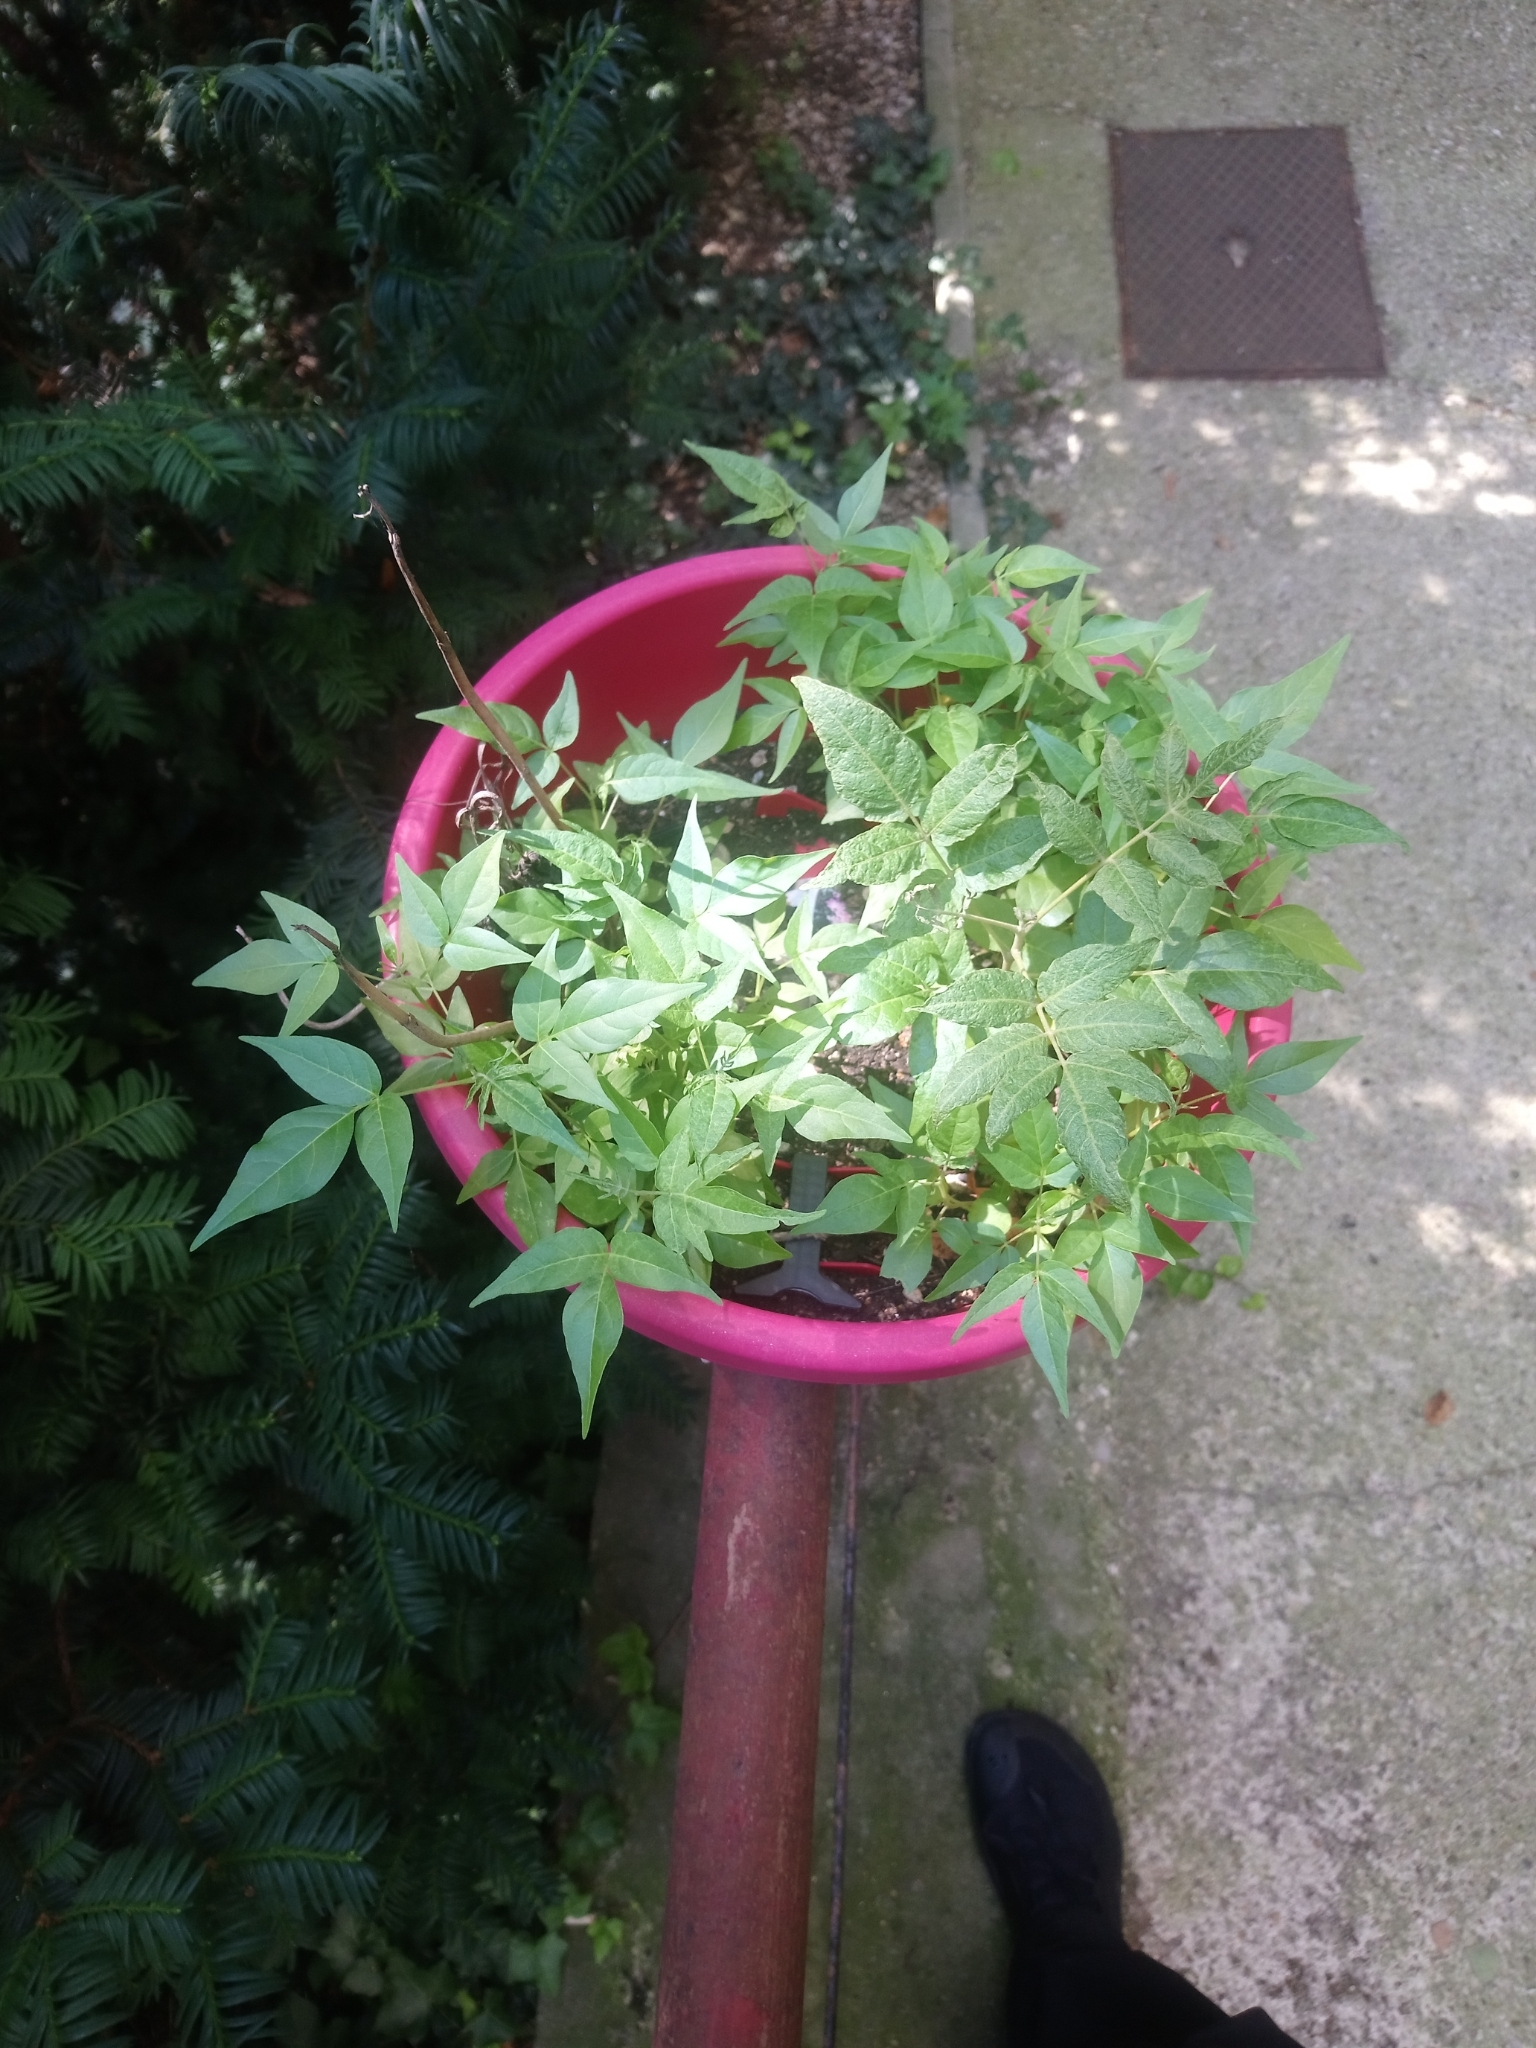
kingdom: Plantae
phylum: Tracheophyta
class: Magnoliopsida
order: Sapindales
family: Simaroubaceae
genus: Ailanthus
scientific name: Ailanthus altissima
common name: Tree-of-heaven
